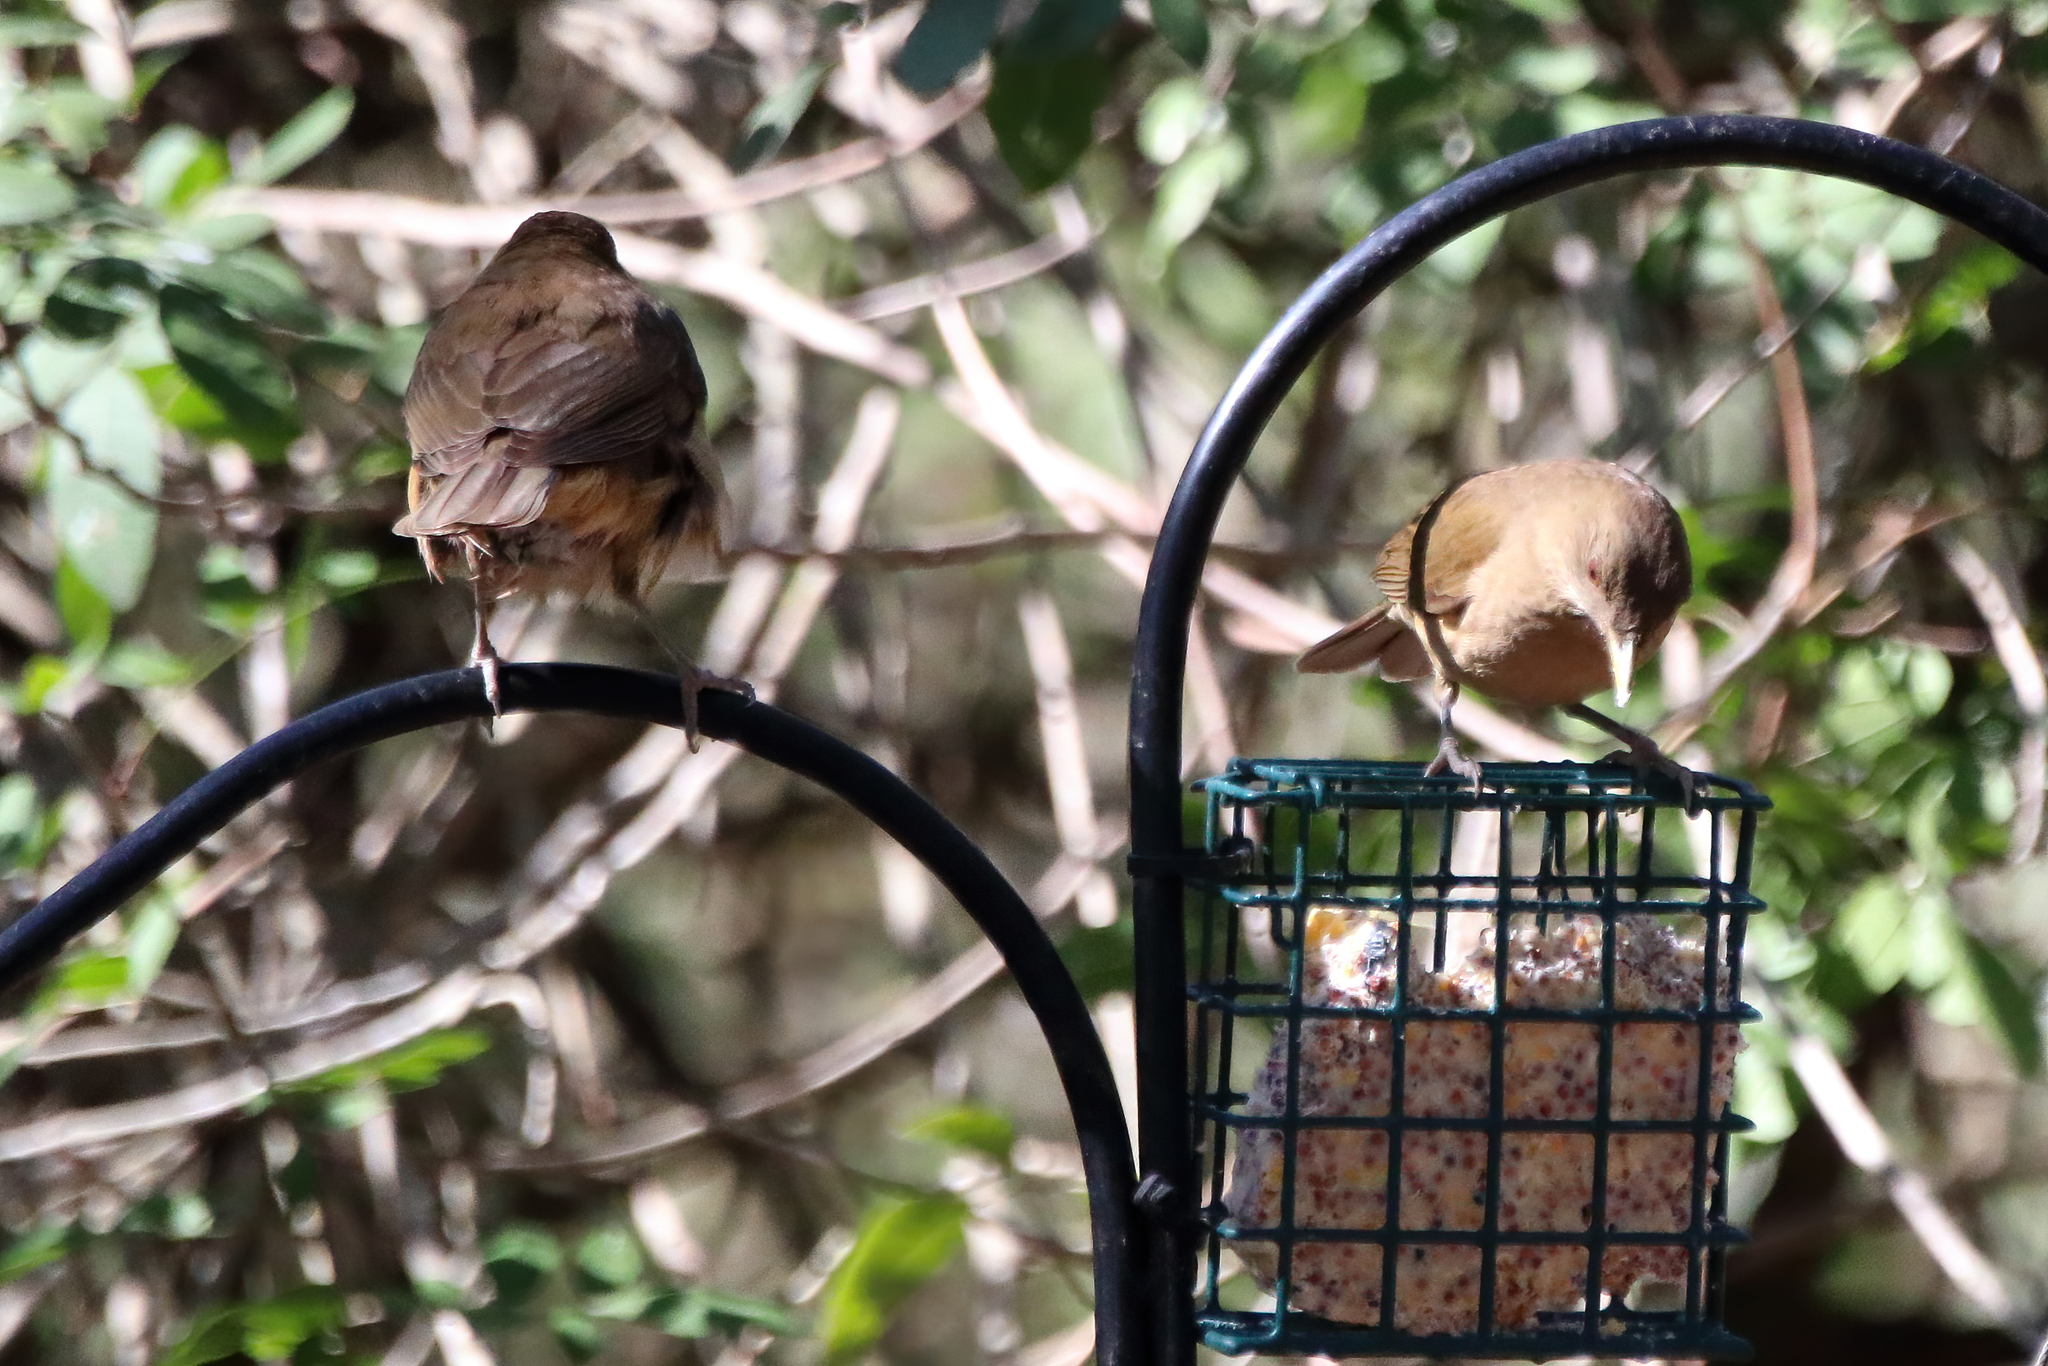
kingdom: Animalia
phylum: Chordata
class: Aves
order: Passeriformes
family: Turdidae
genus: Turdus
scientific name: Turdus grayi
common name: Clay-colored thrush
